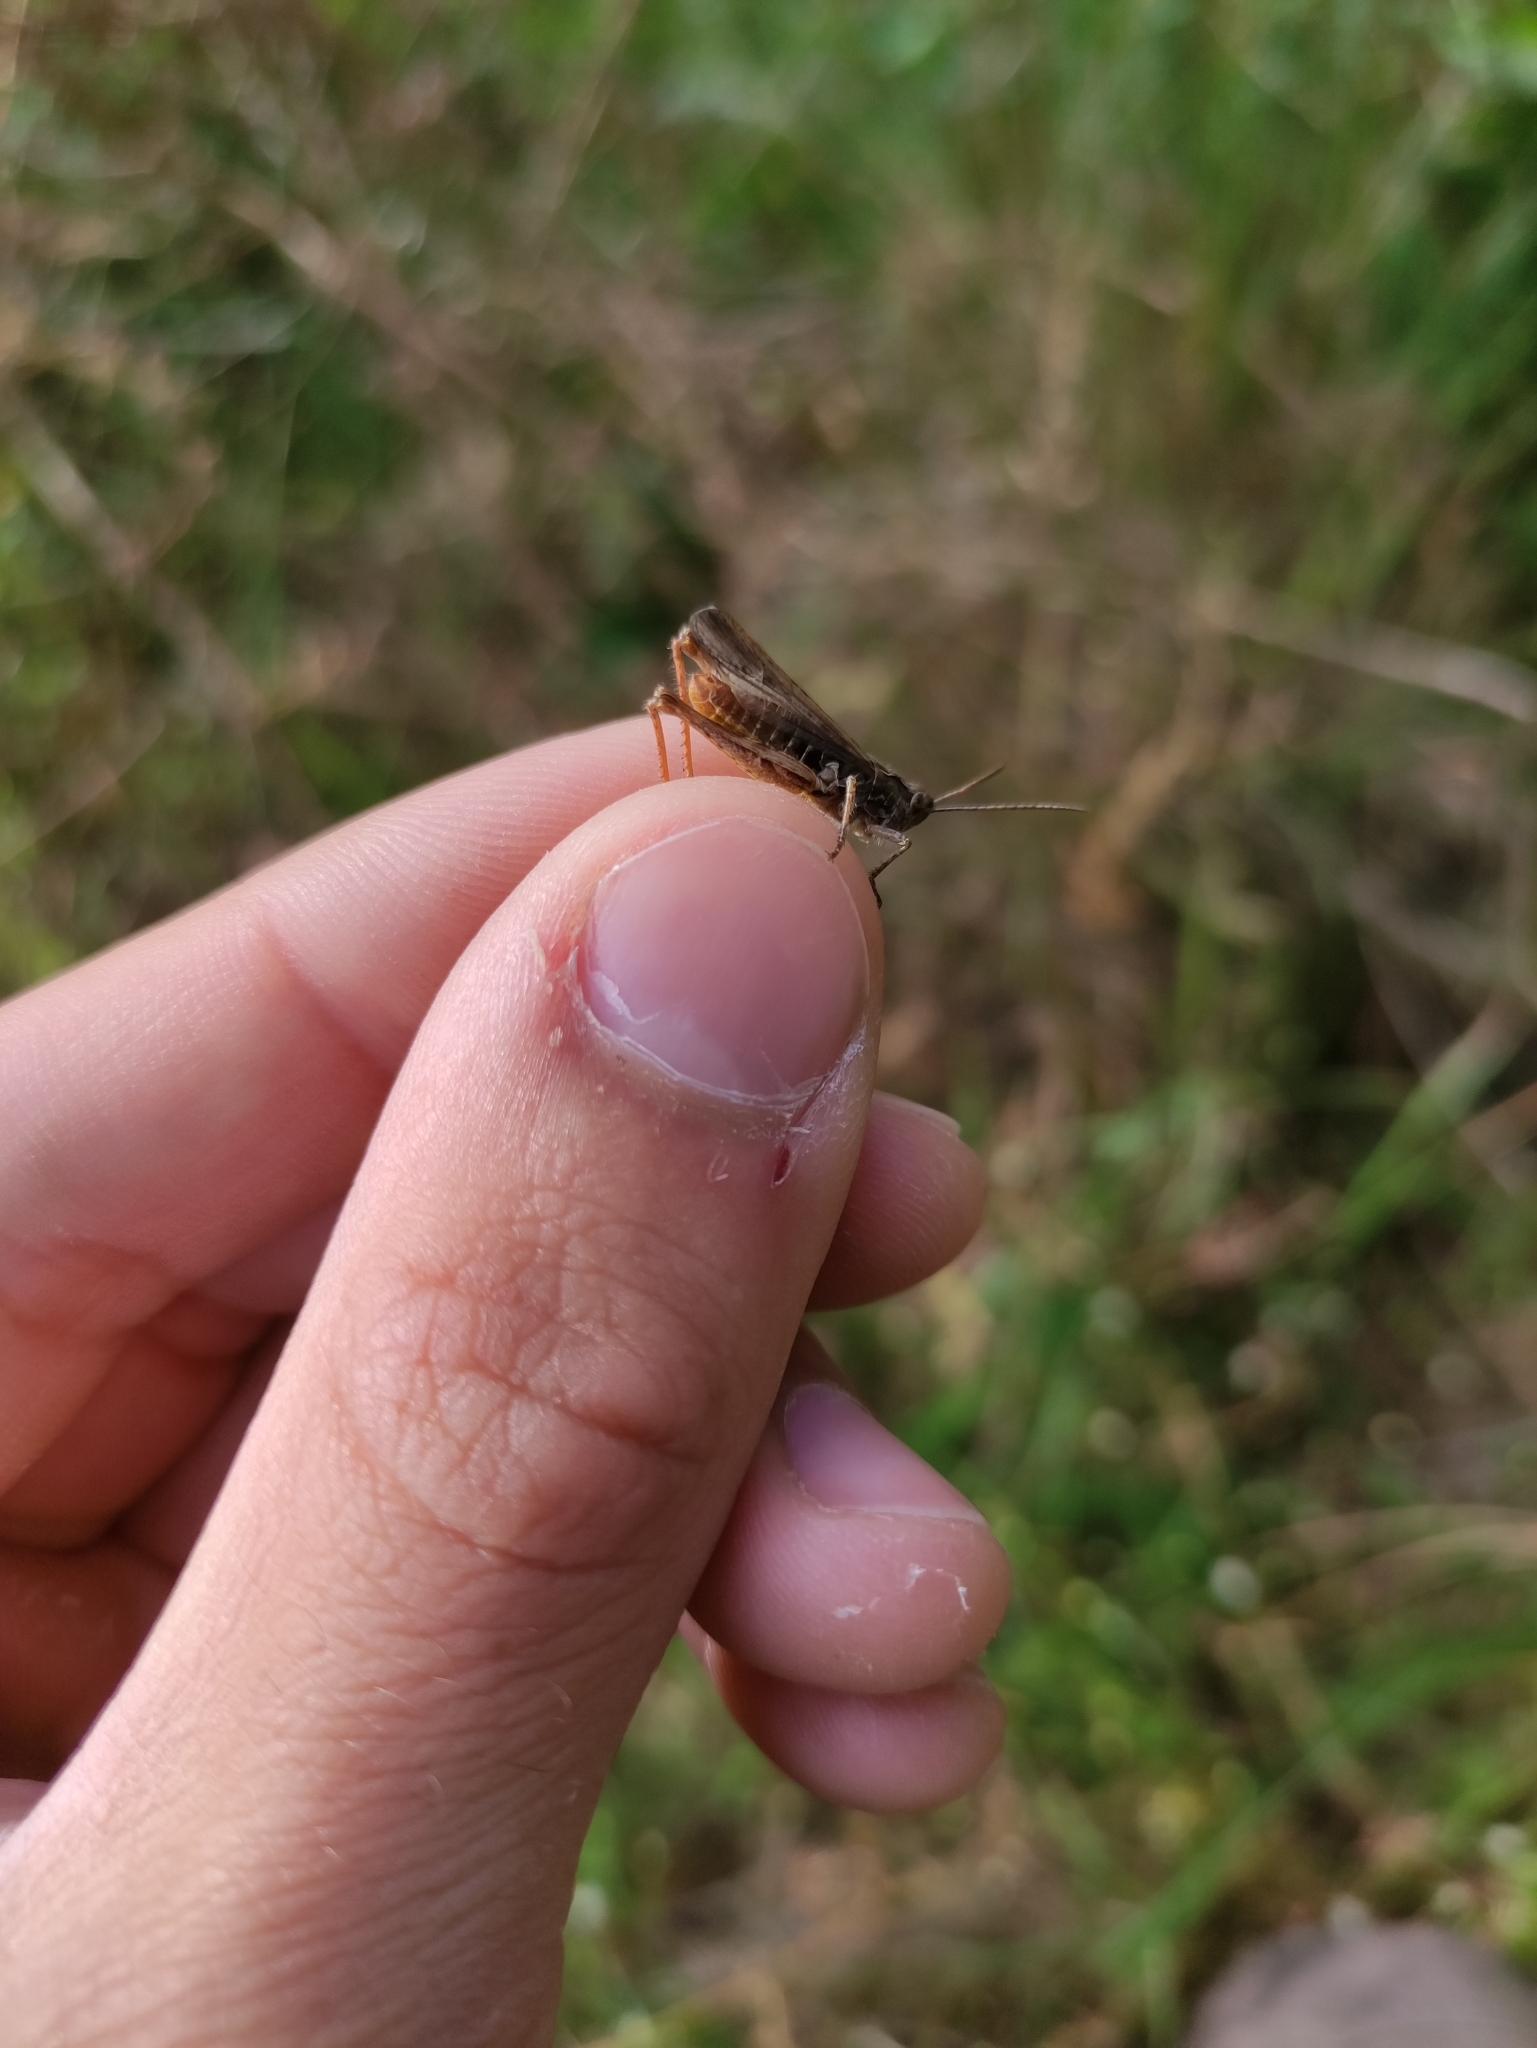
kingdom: Animalia
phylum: Arthropoda
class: Insecta
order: Orthoptera
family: Acrididae
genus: Chorthippus
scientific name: Chorthippus biguttulus
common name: Bow-winged grasshopper
